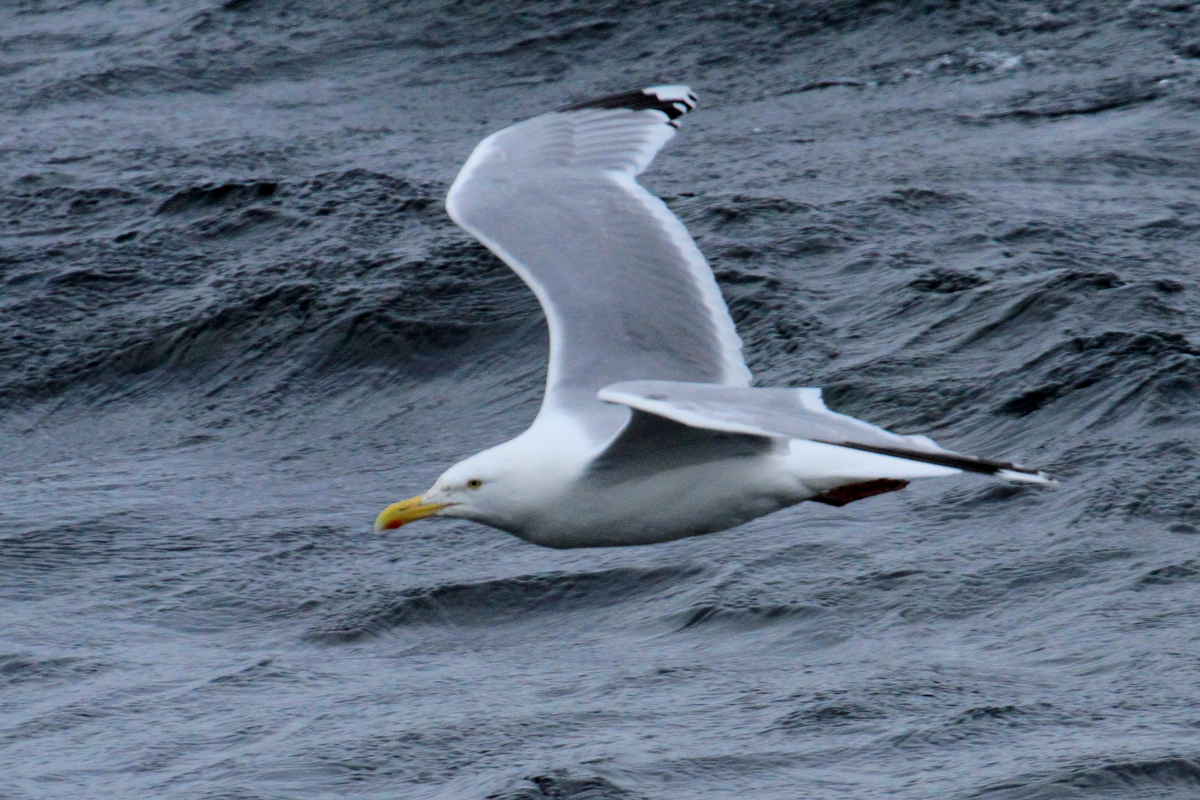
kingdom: Animalia
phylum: Chordata
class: Aves
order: Charadriiformes
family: Laridae
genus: Larus
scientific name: Larus argentatus
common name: Herring gull
